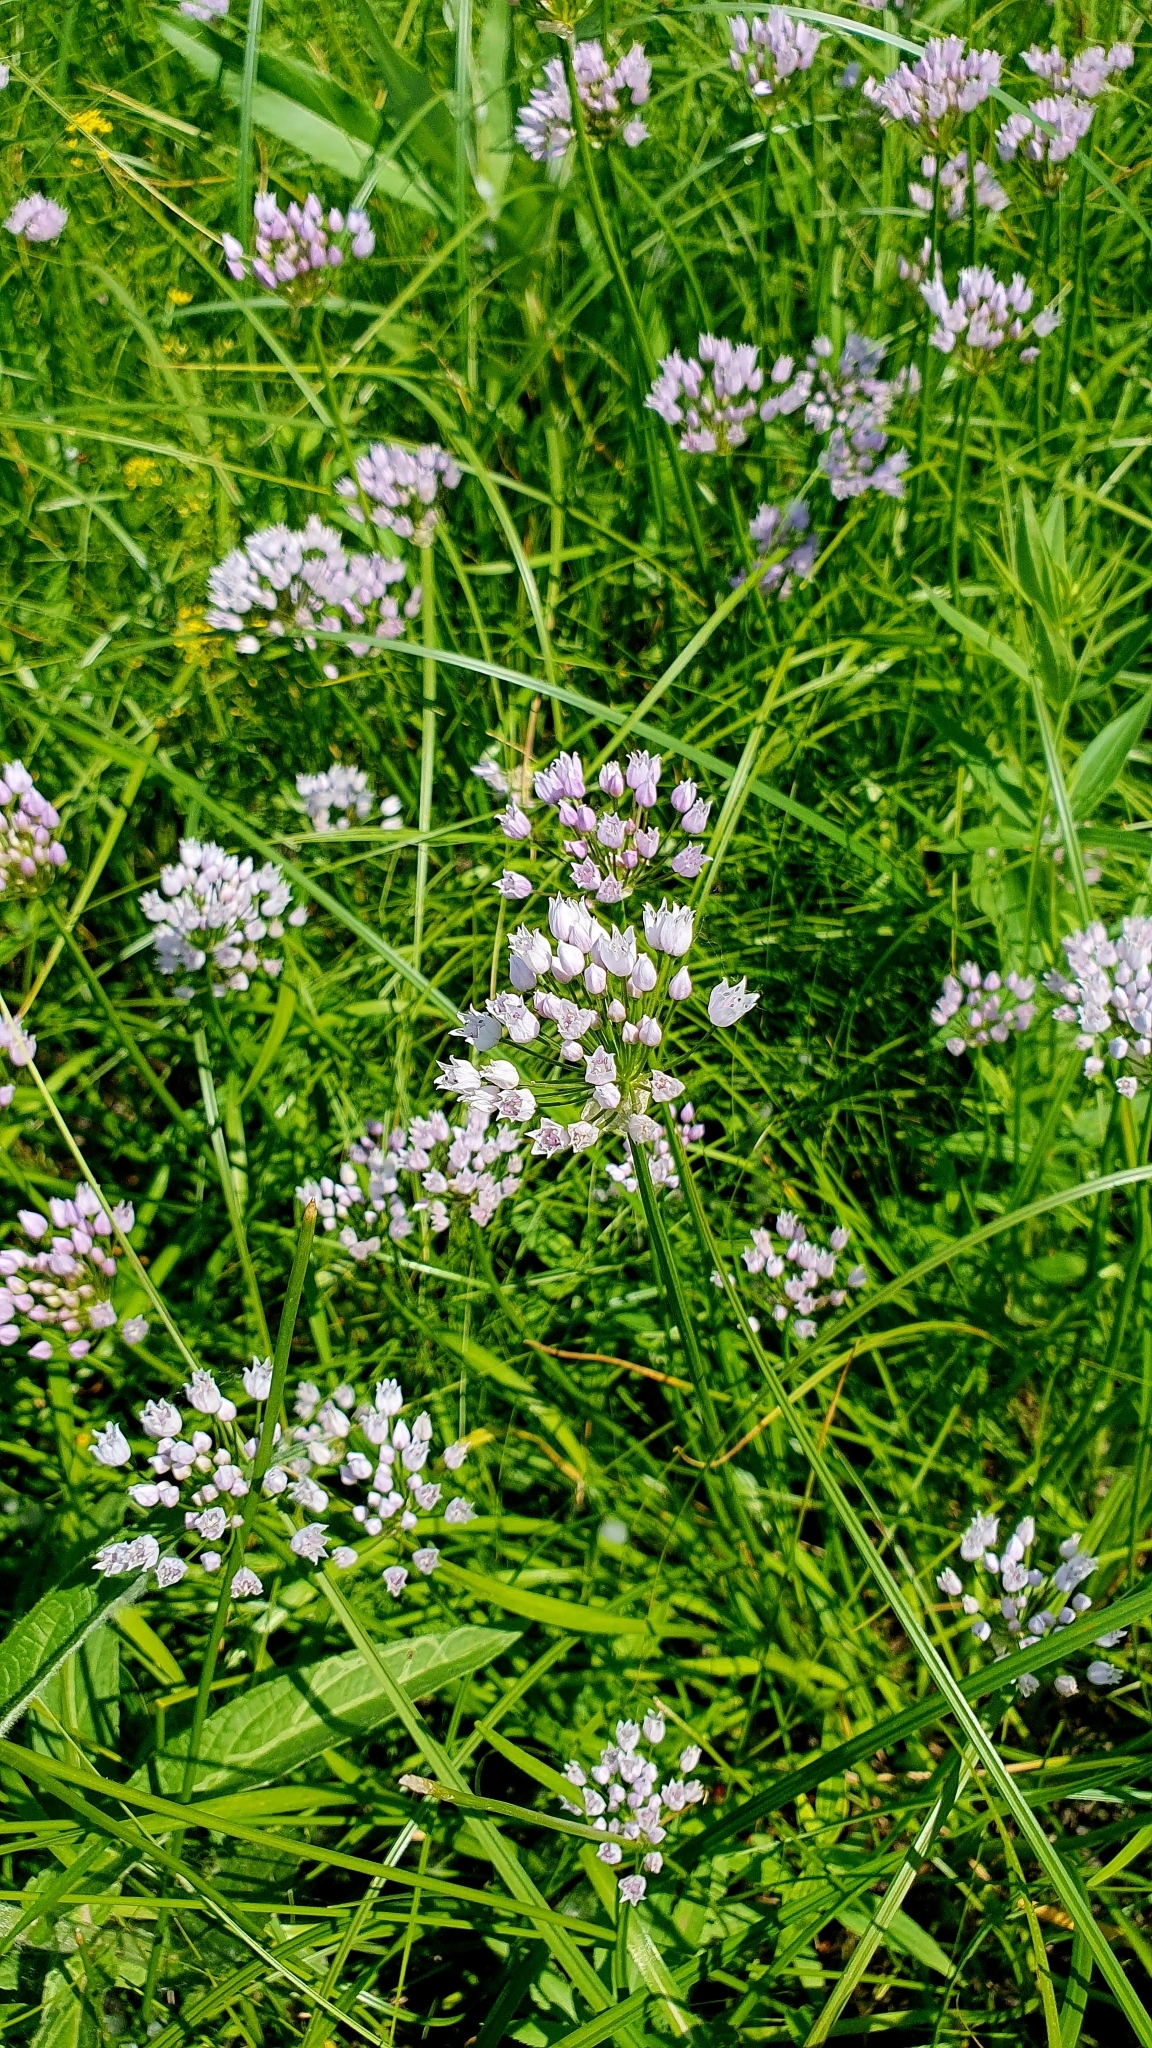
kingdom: Plantae
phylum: Tracheophyta
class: Liliopsida
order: Asparagales
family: Amaryllidaceae
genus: Allium
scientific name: Allium angulosum
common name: Mouse garlic
